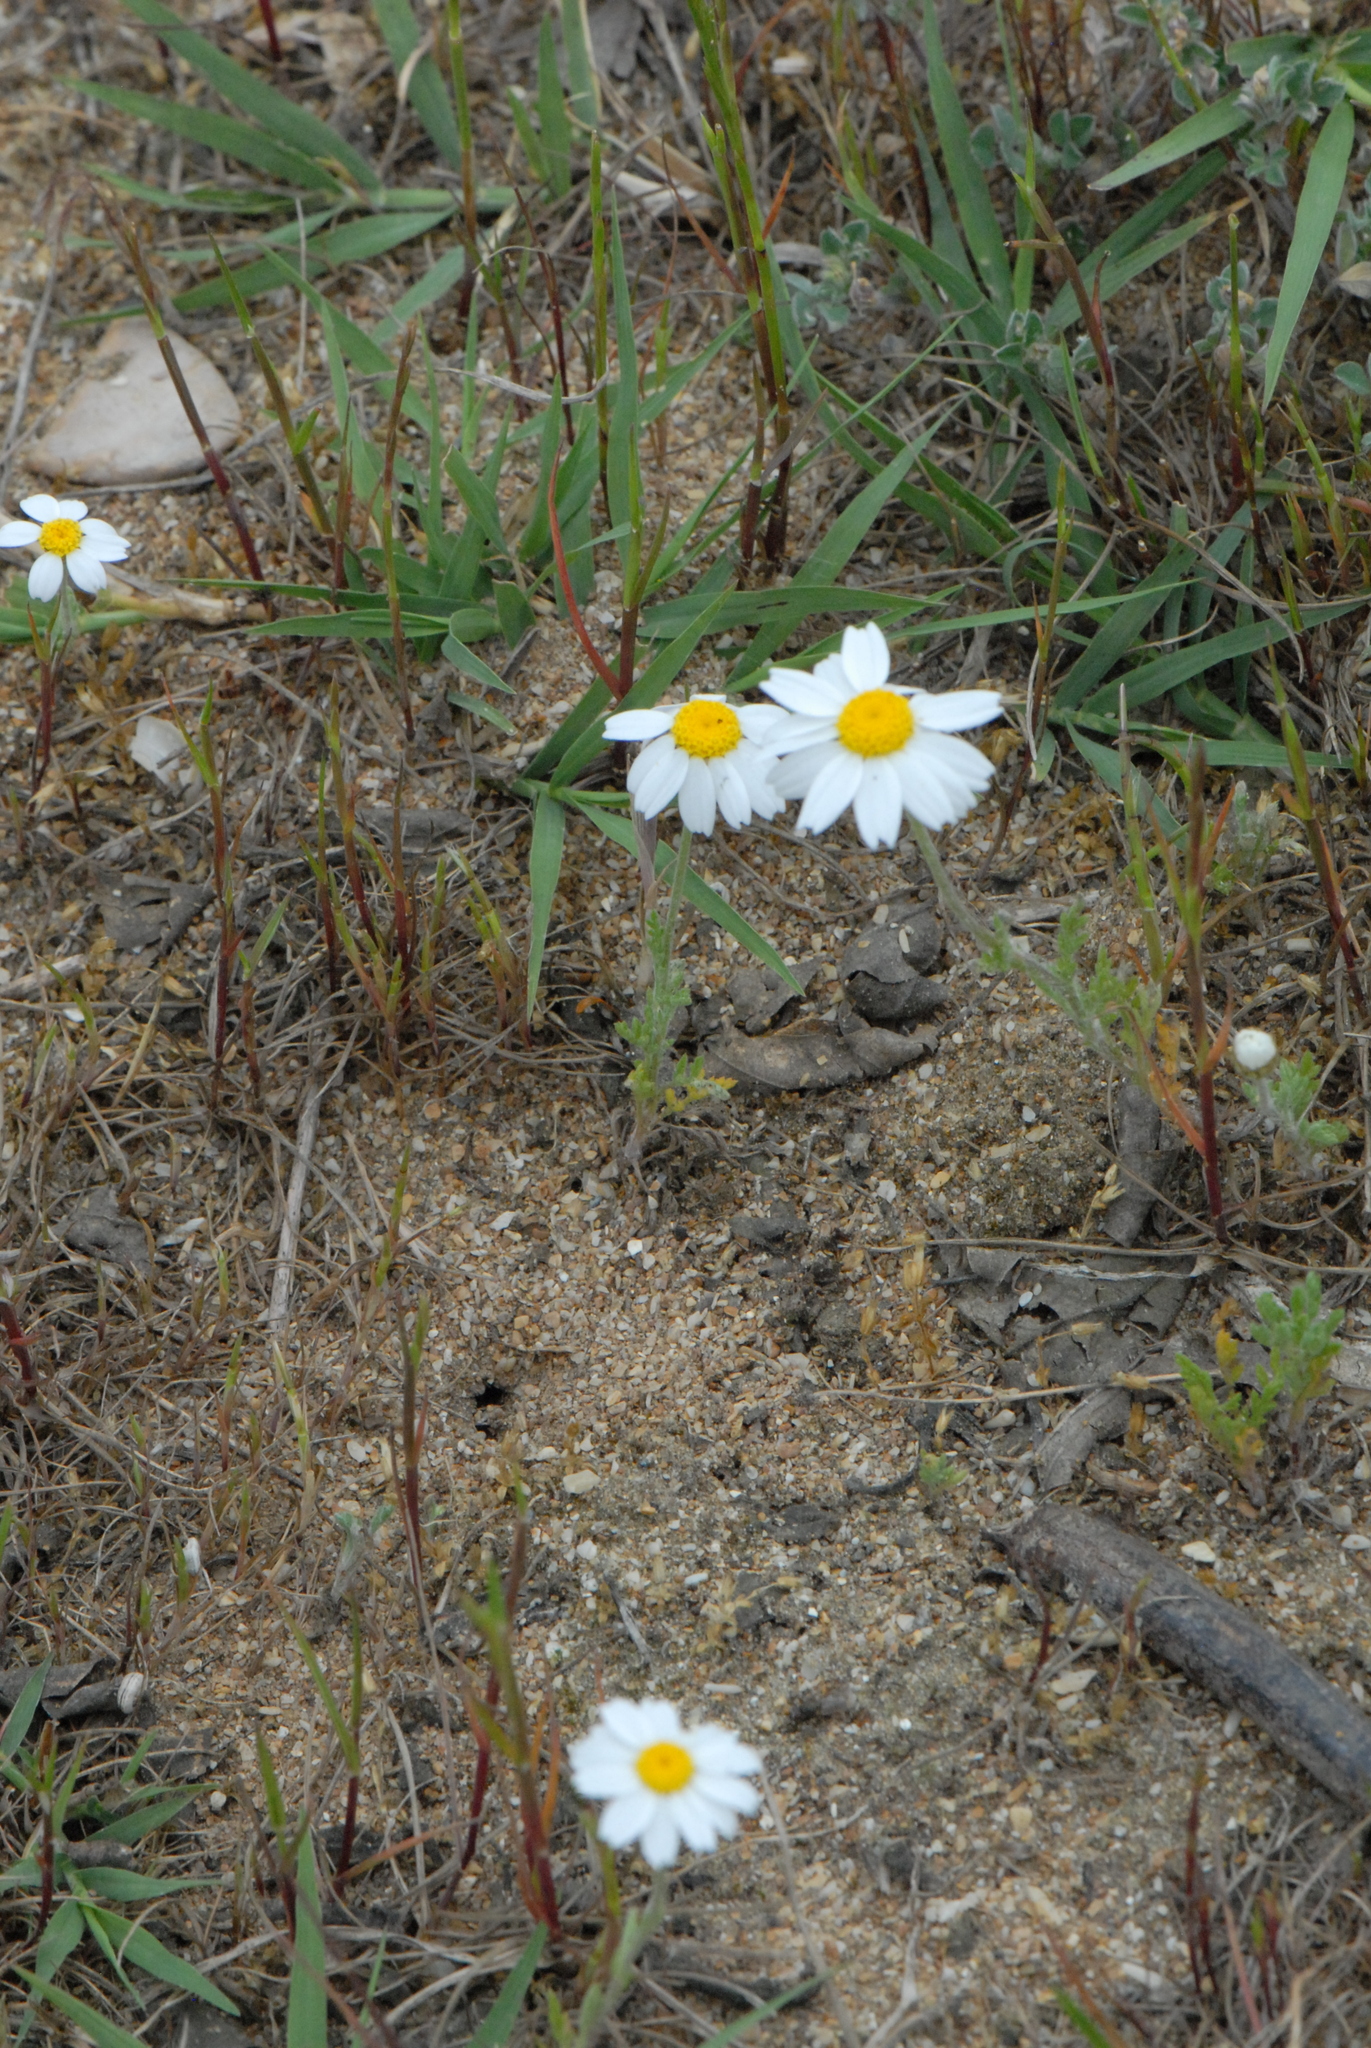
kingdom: Plantae
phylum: Tracheophyta
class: Magnoliopsida
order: Asterales
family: Asteraceae
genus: Anthemis
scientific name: Anthemis ruthenica
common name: Eastern chamomile
